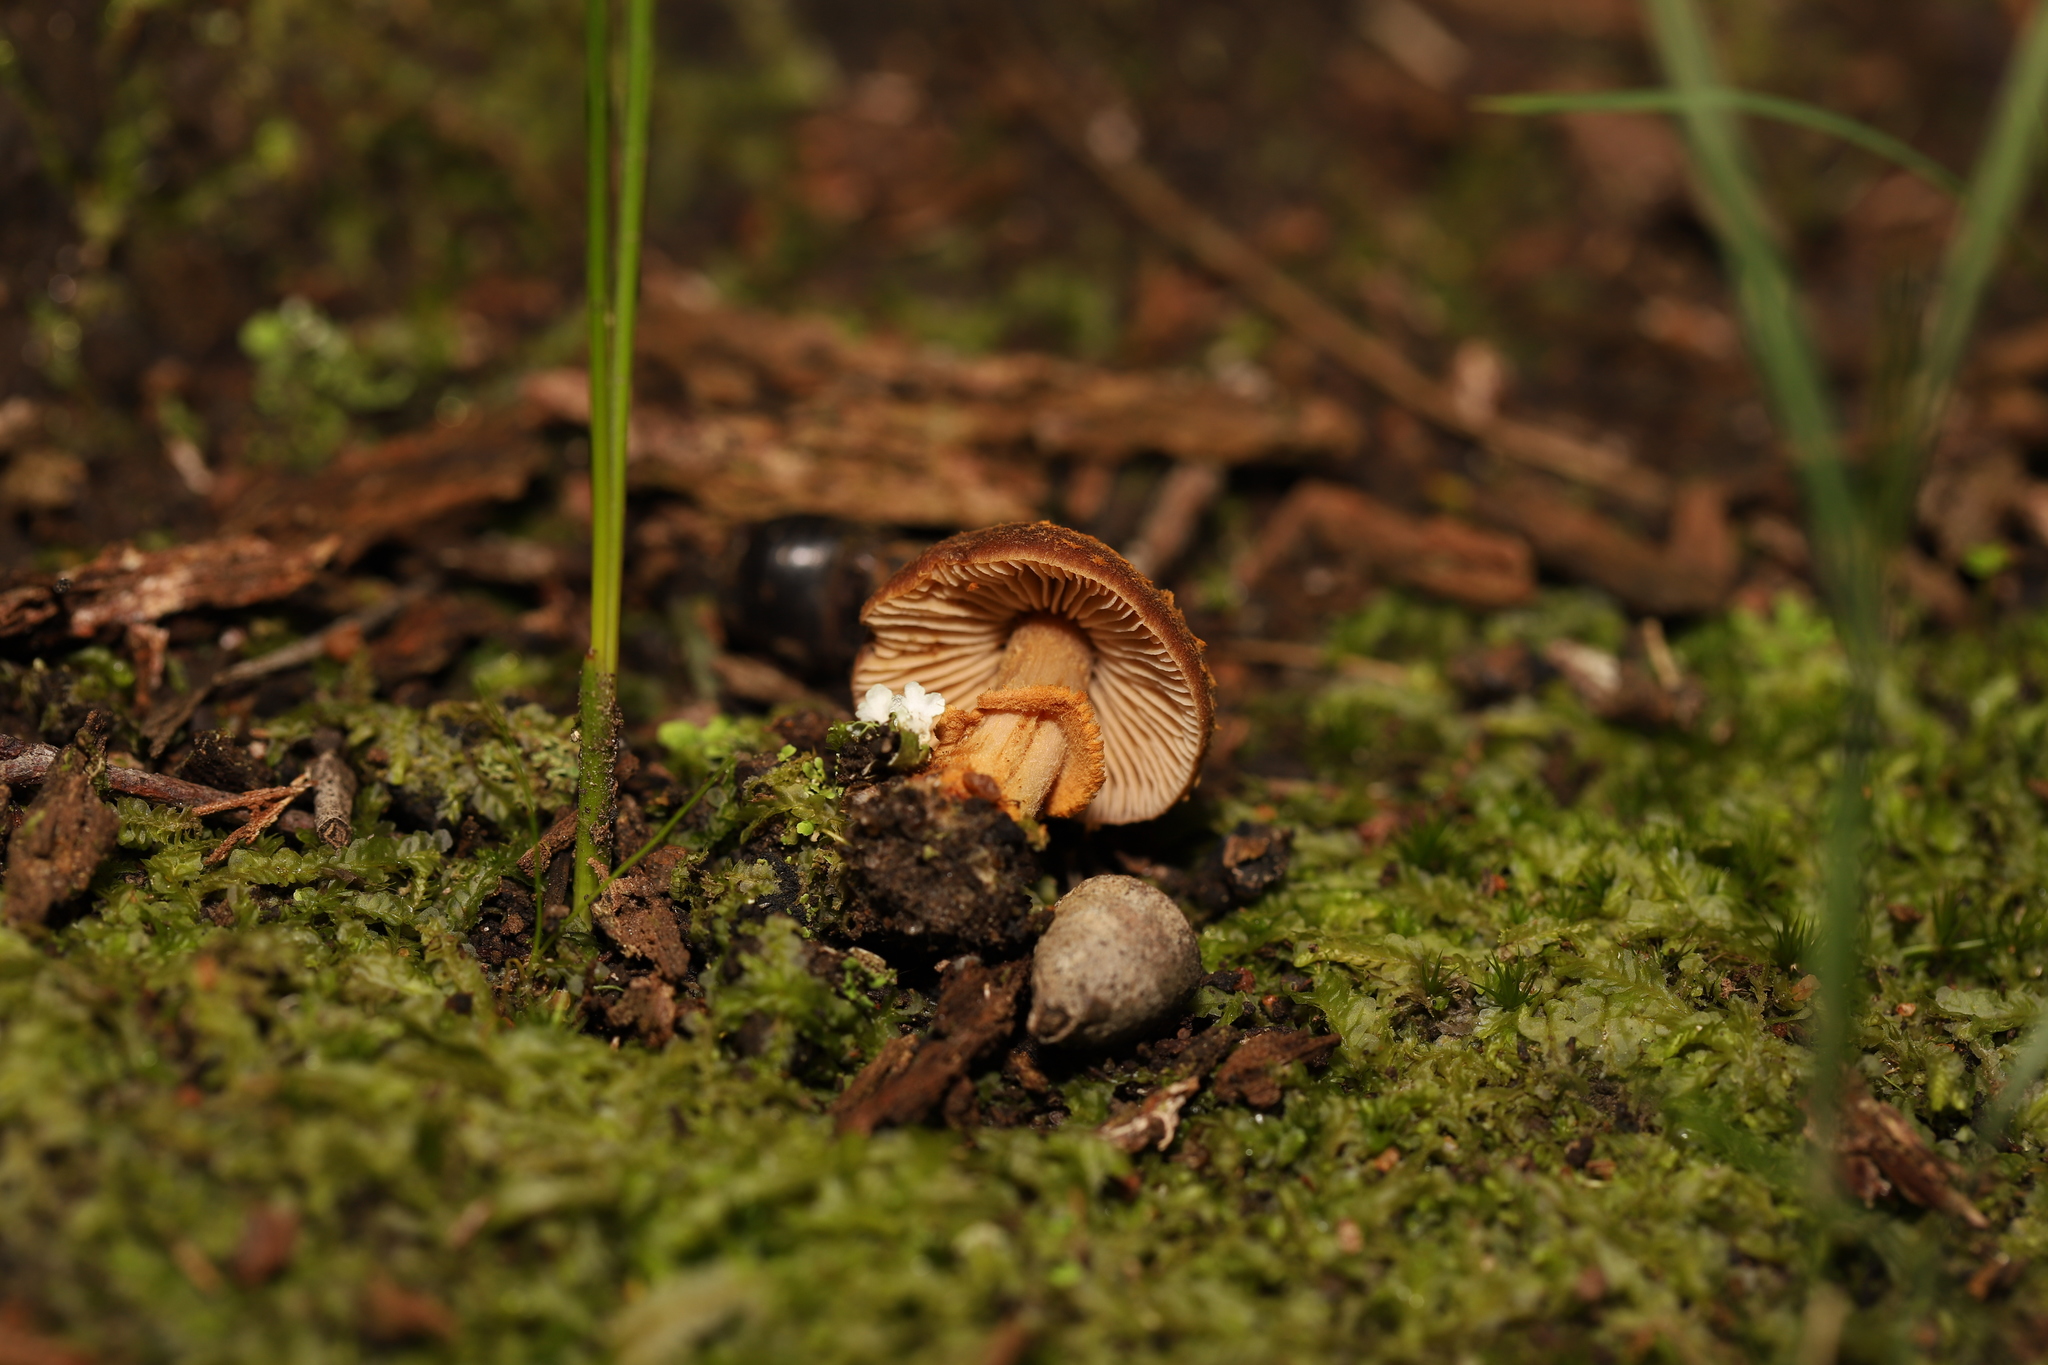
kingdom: Fungi
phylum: Basidiomycota
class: Agaricomycetes
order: Agaricales
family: Bolbitiaceae
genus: Descolea
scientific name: Descolea recedens
